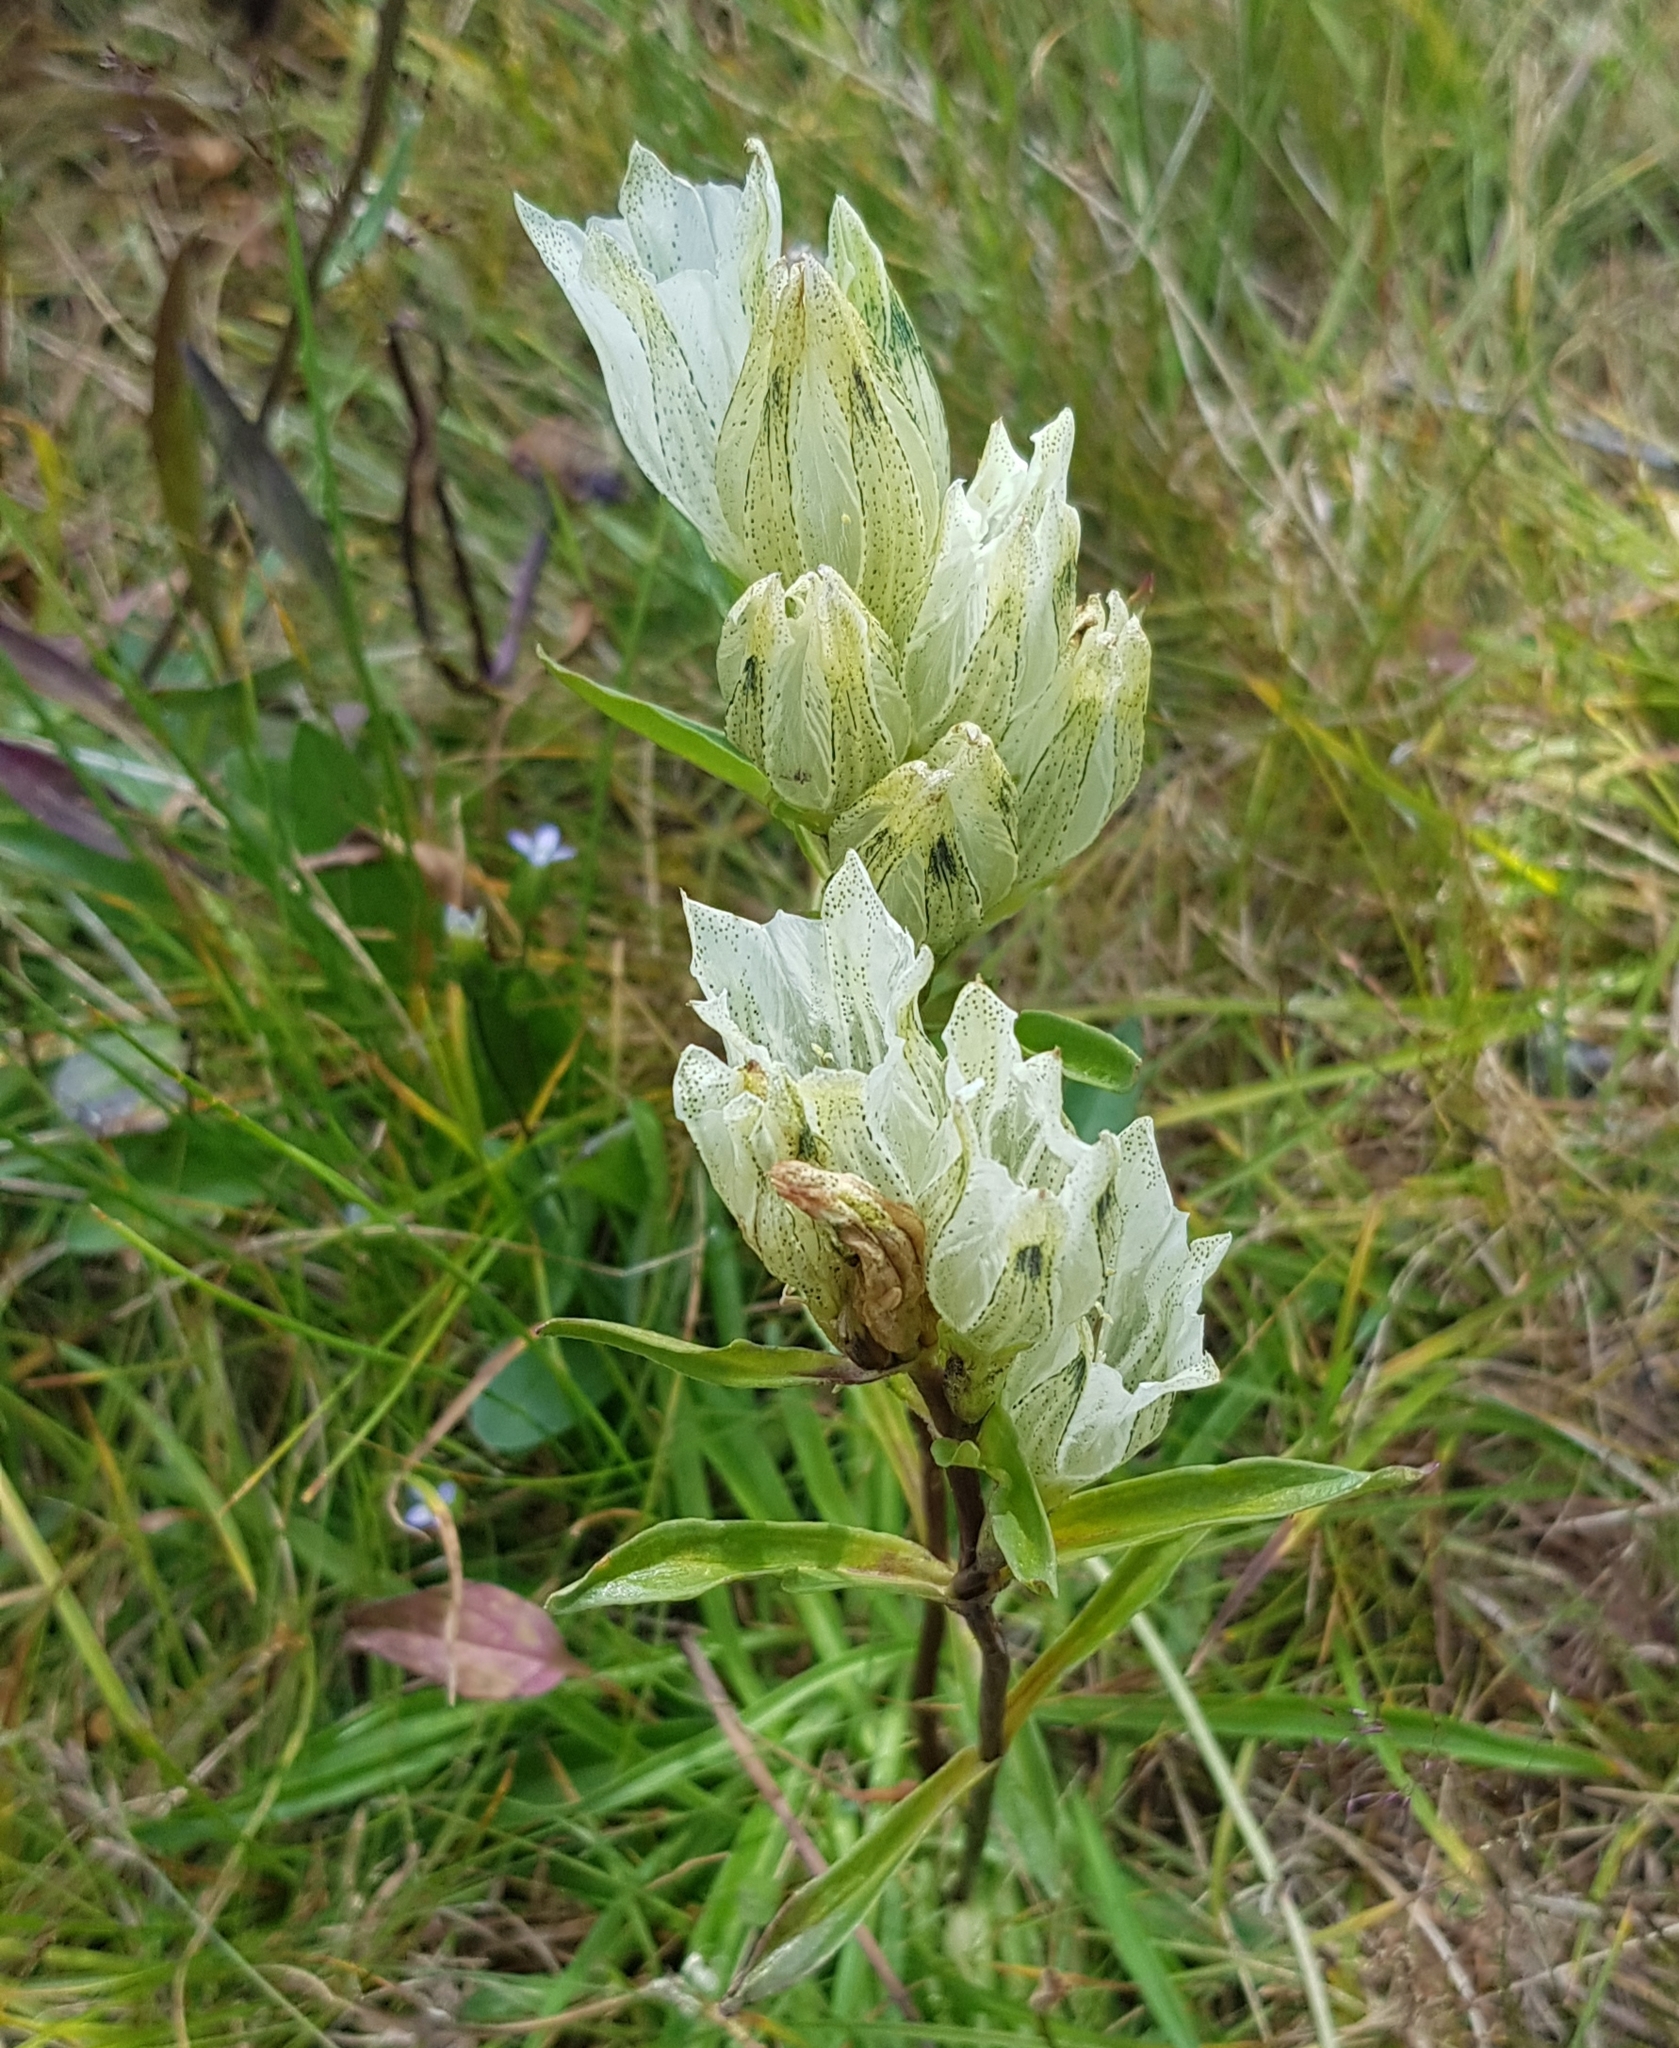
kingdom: Plantae
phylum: Tracheophyta
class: Magnoliopsida
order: Gentianales
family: Gentianaceae
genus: Gentiana
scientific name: Gentiana algida
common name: Arctic gentian
